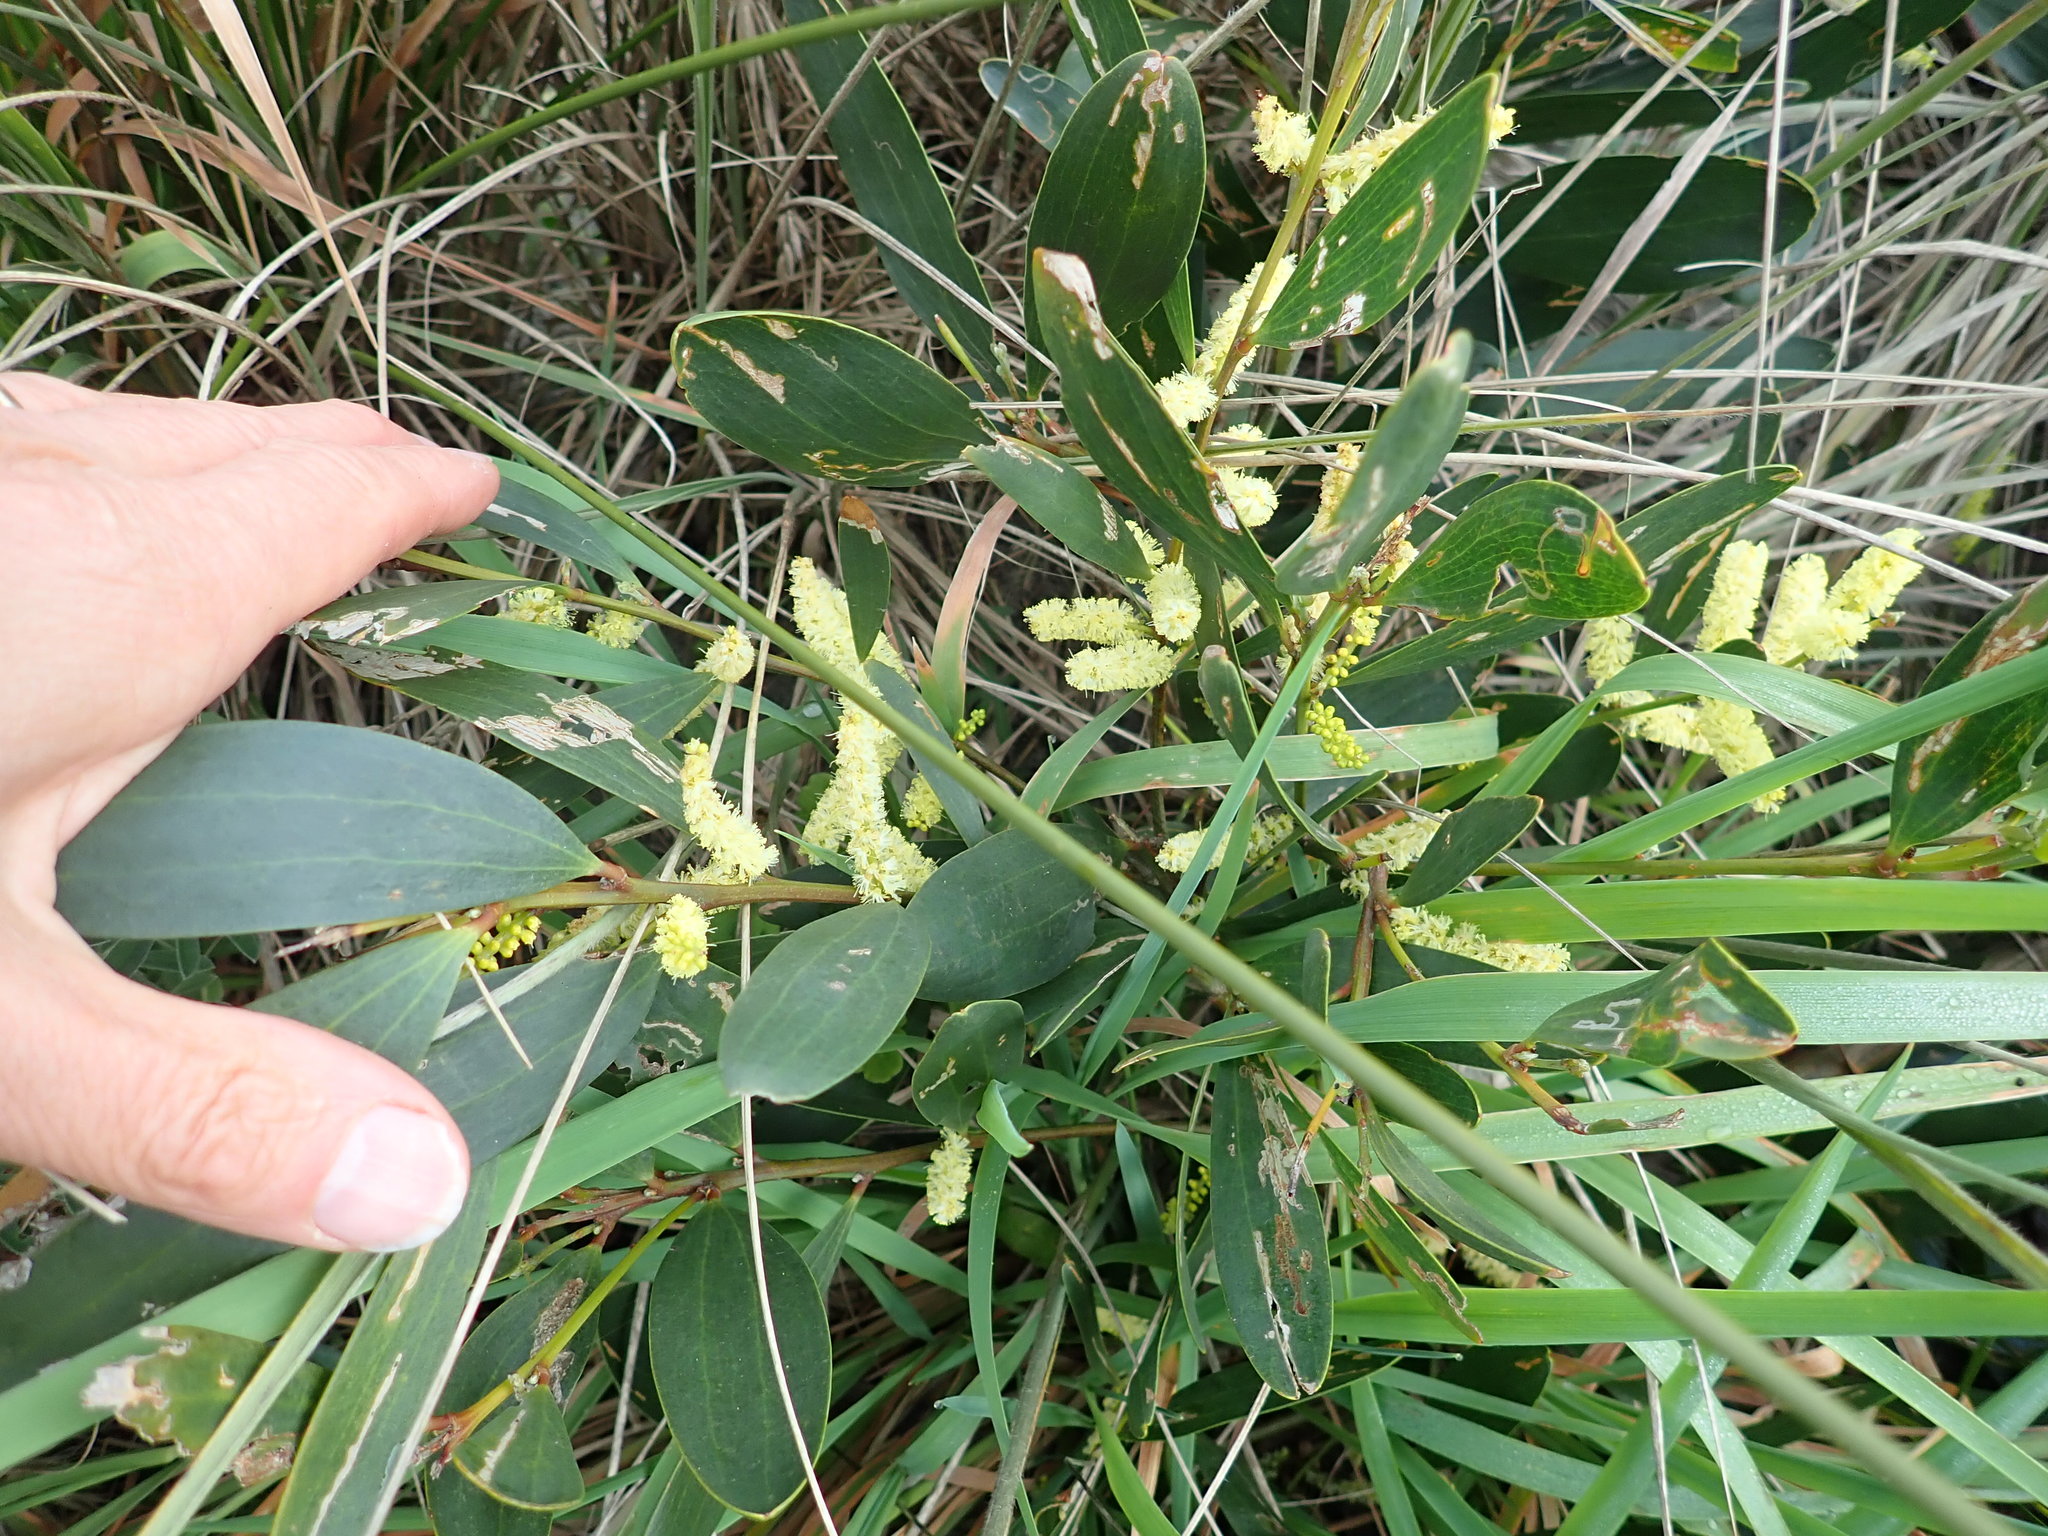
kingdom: Plantae
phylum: Tracheophyta
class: Magnoliopsida
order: Fabales
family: Fabaceae
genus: Acacia
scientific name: Acacia longifolia
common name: Sydney golden wattle
